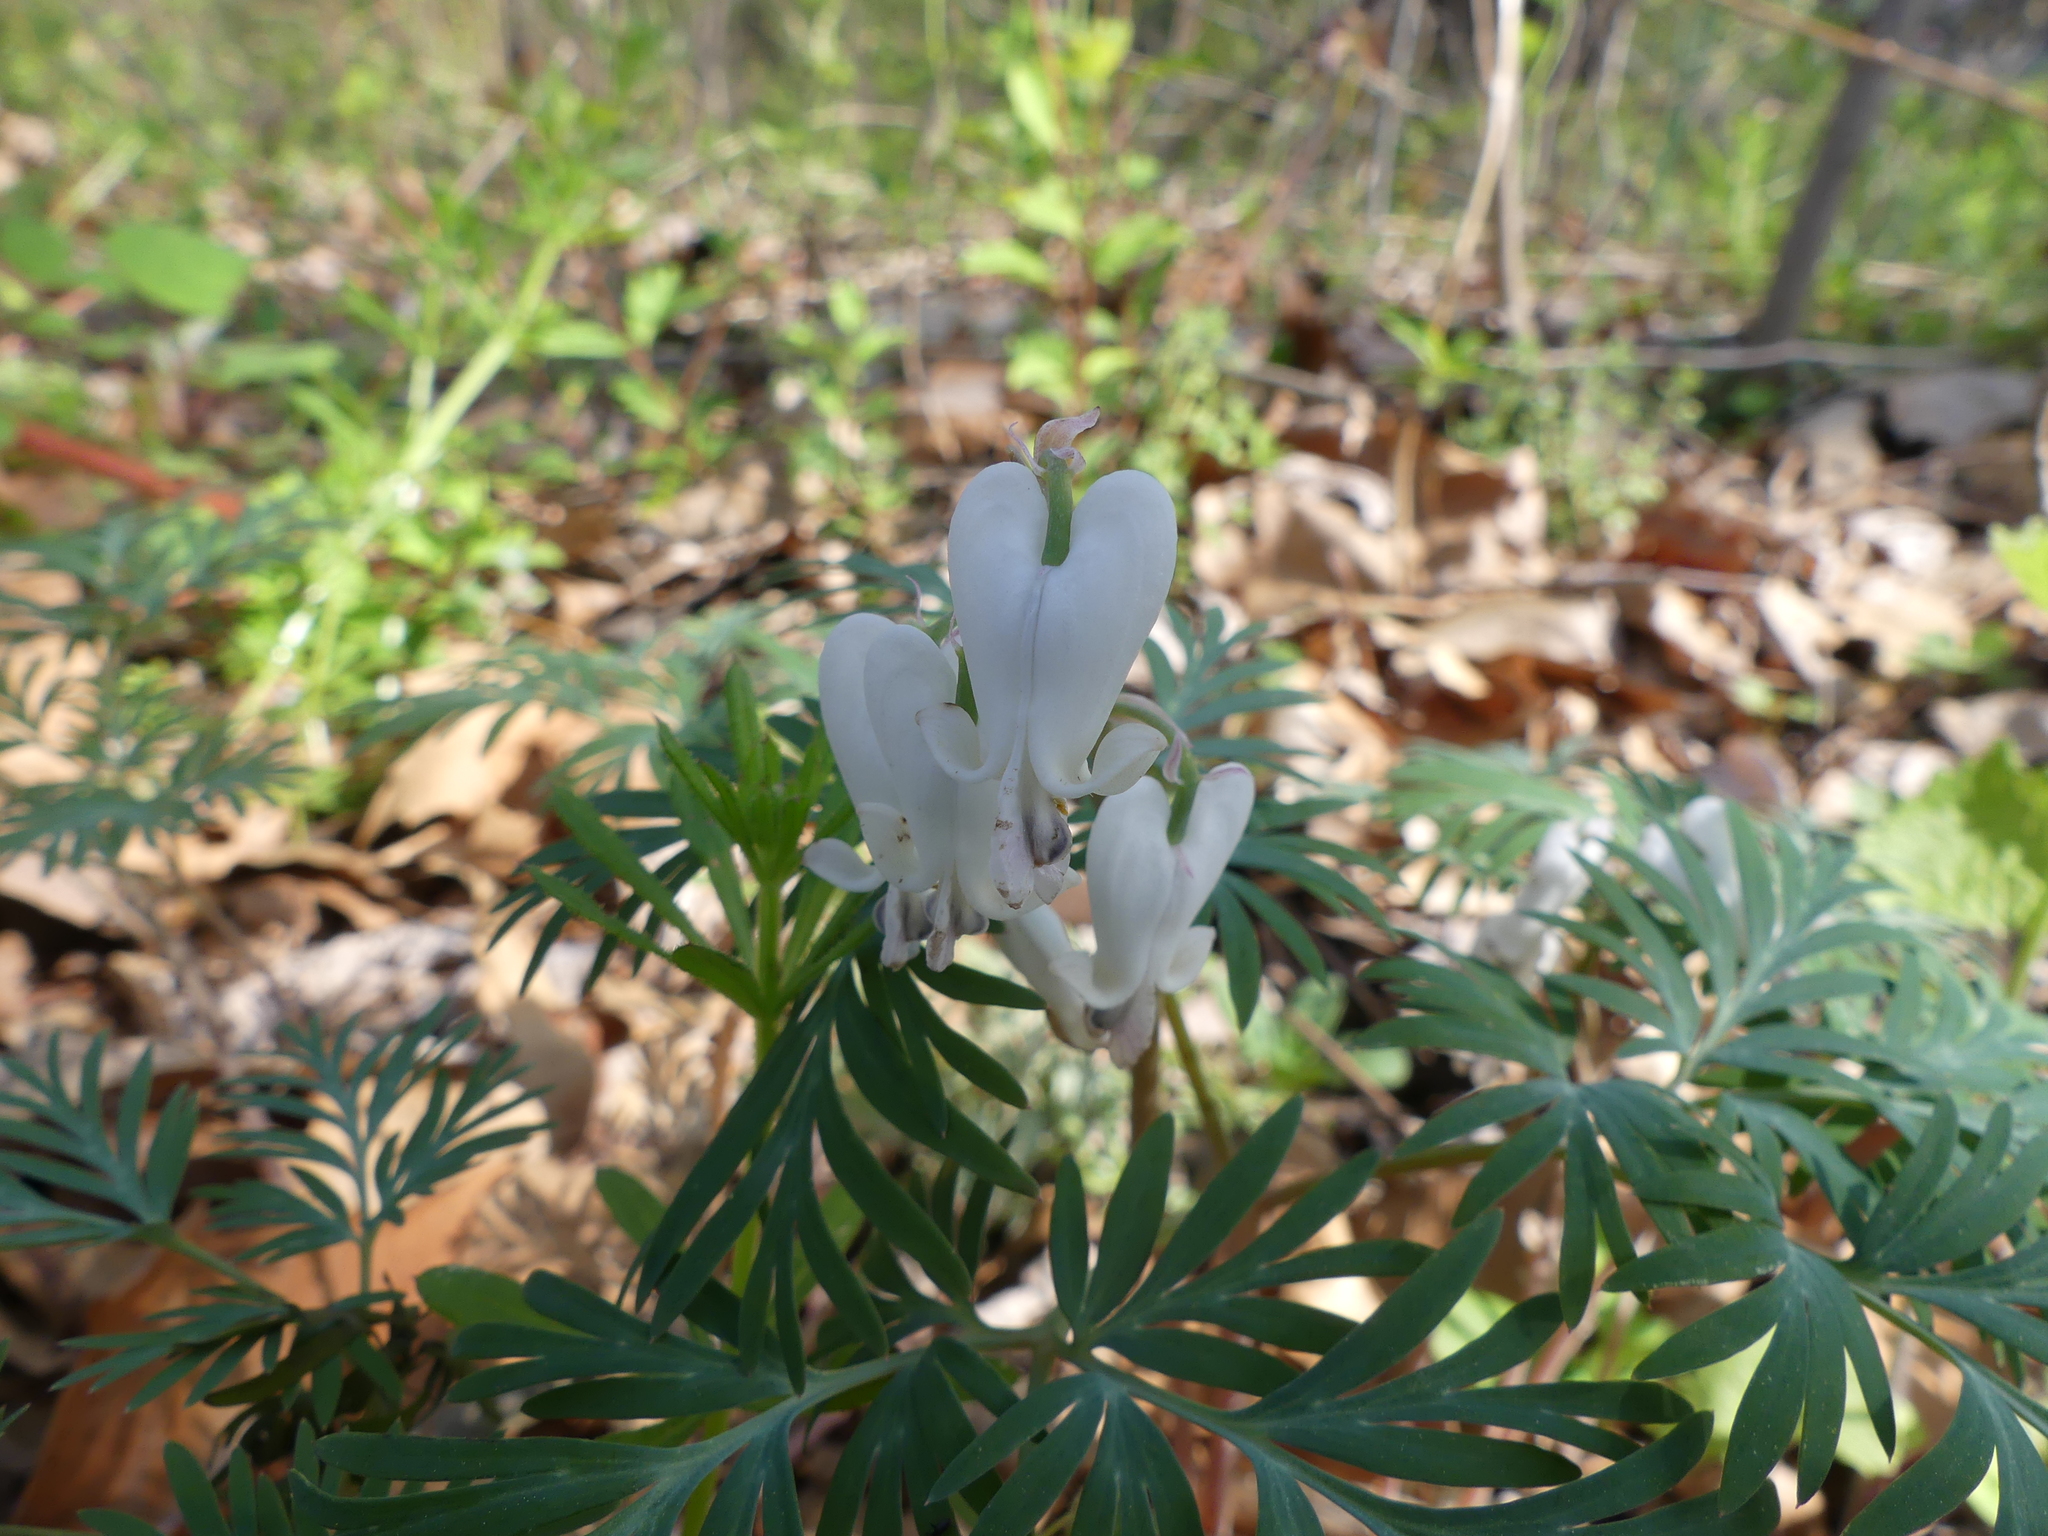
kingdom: Plantae
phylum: Tracheophyta
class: Magnoliopsida
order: Ranunculales
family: Papaveraceae
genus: Dicentra
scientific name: Dicentra canadensis
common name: Squirrel-corn
